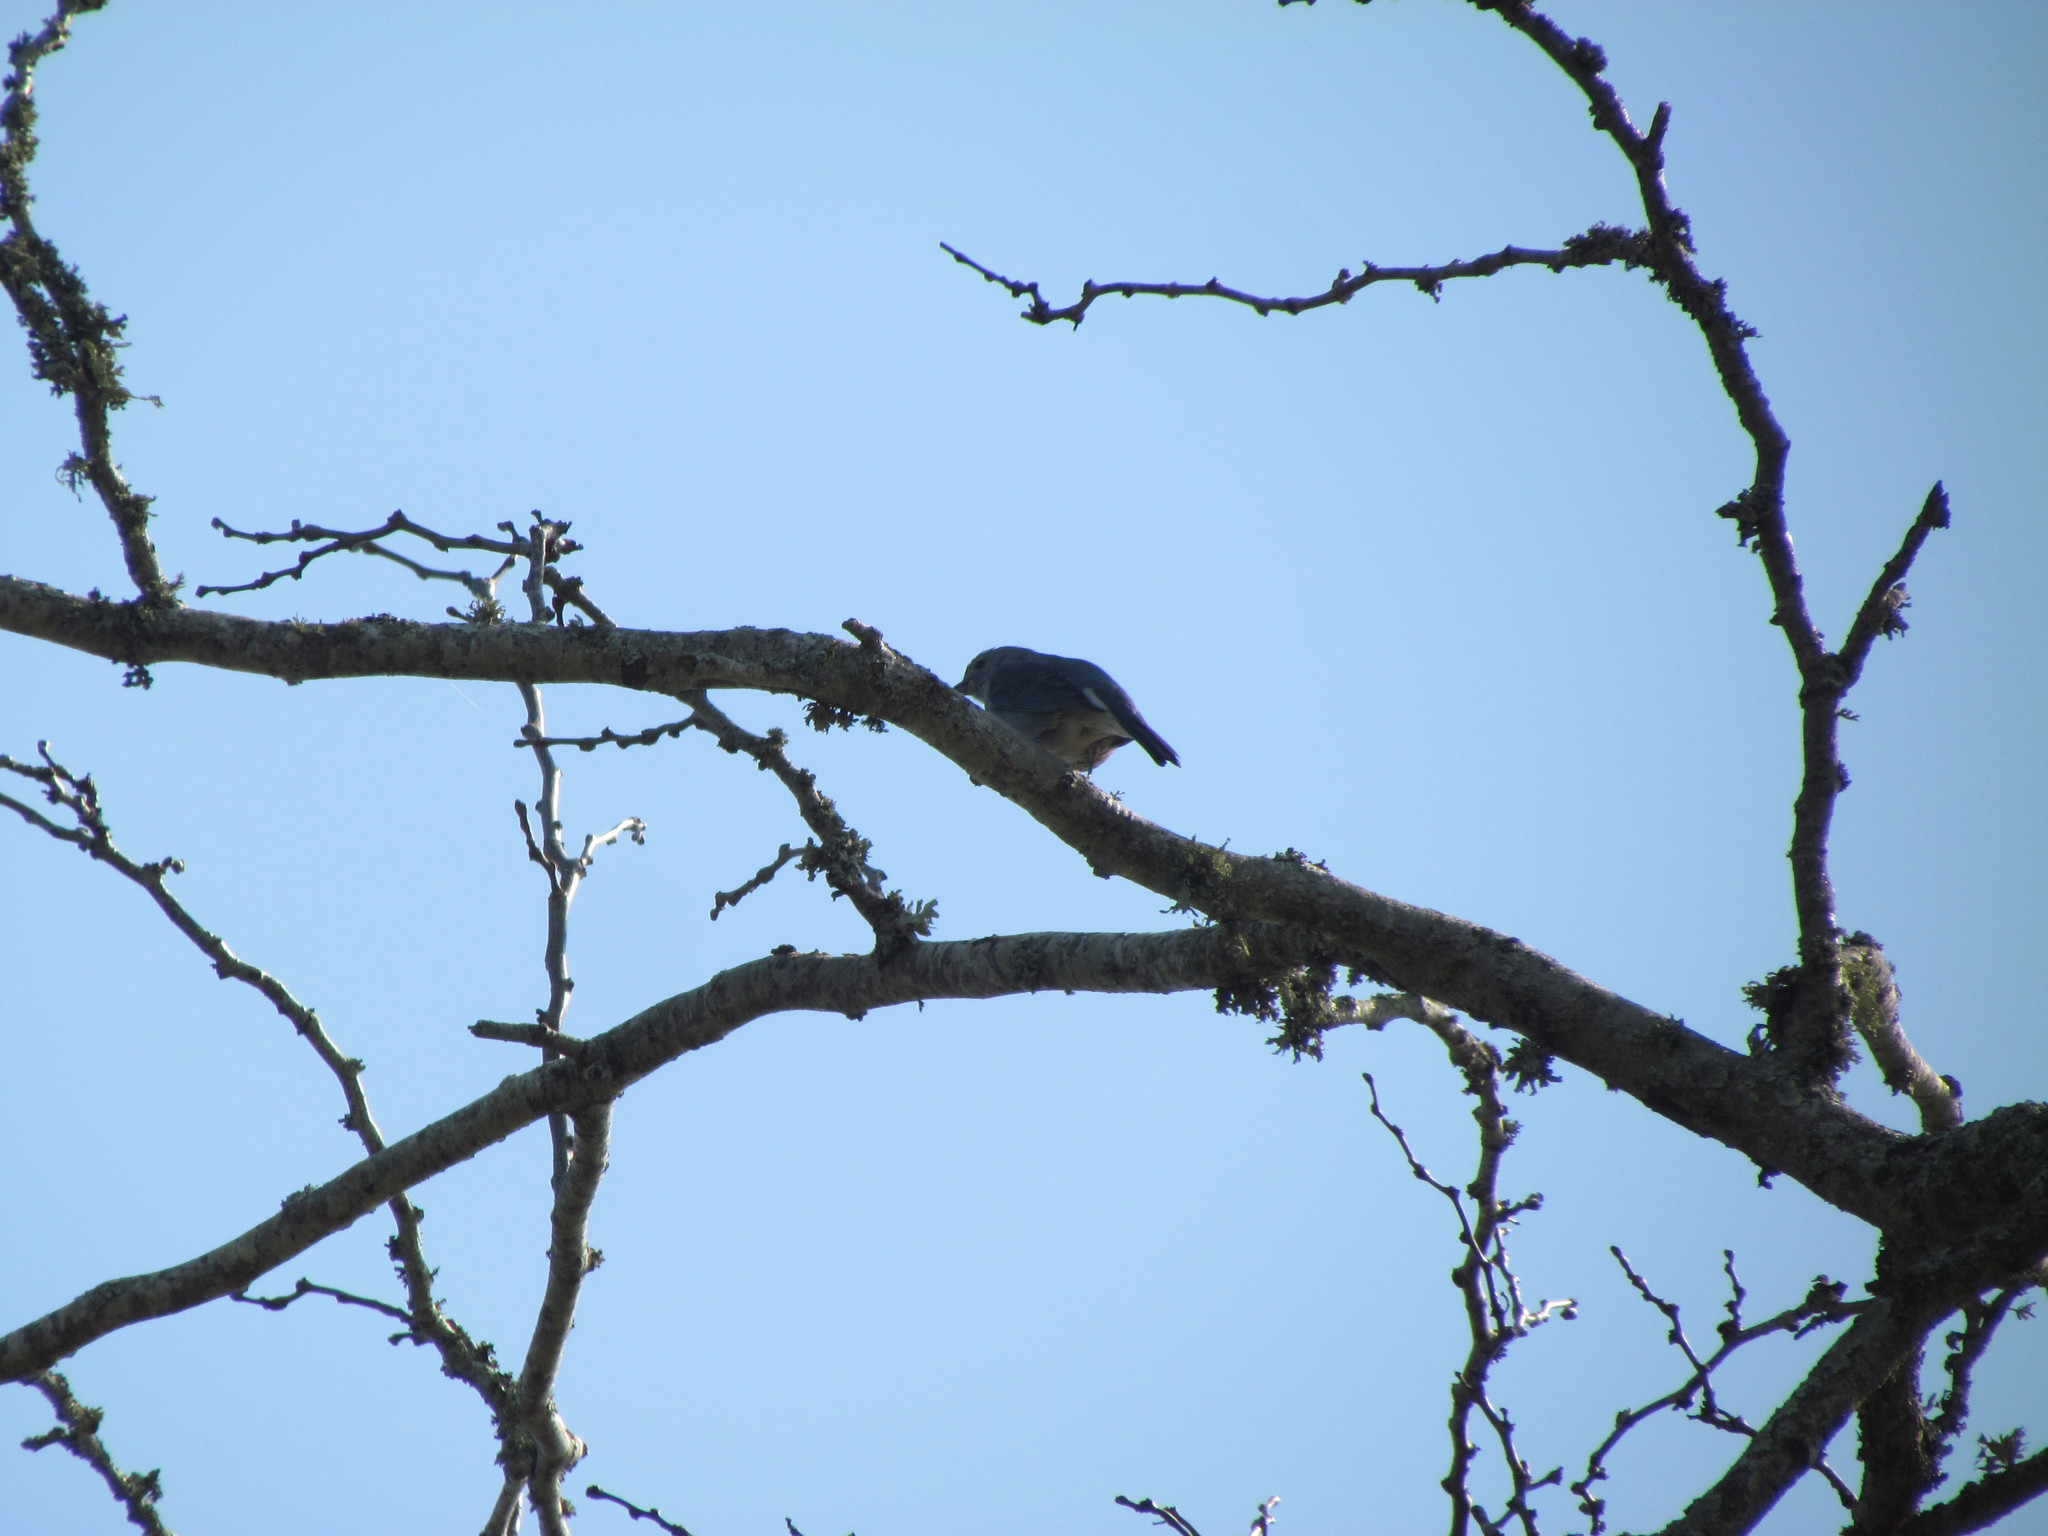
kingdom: Animalia
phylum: Chordata
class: Aves
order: Passeriformes
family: Thraupidae
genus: Thraupis
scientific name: Thraupis sayaca
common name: Sayaca tanager
